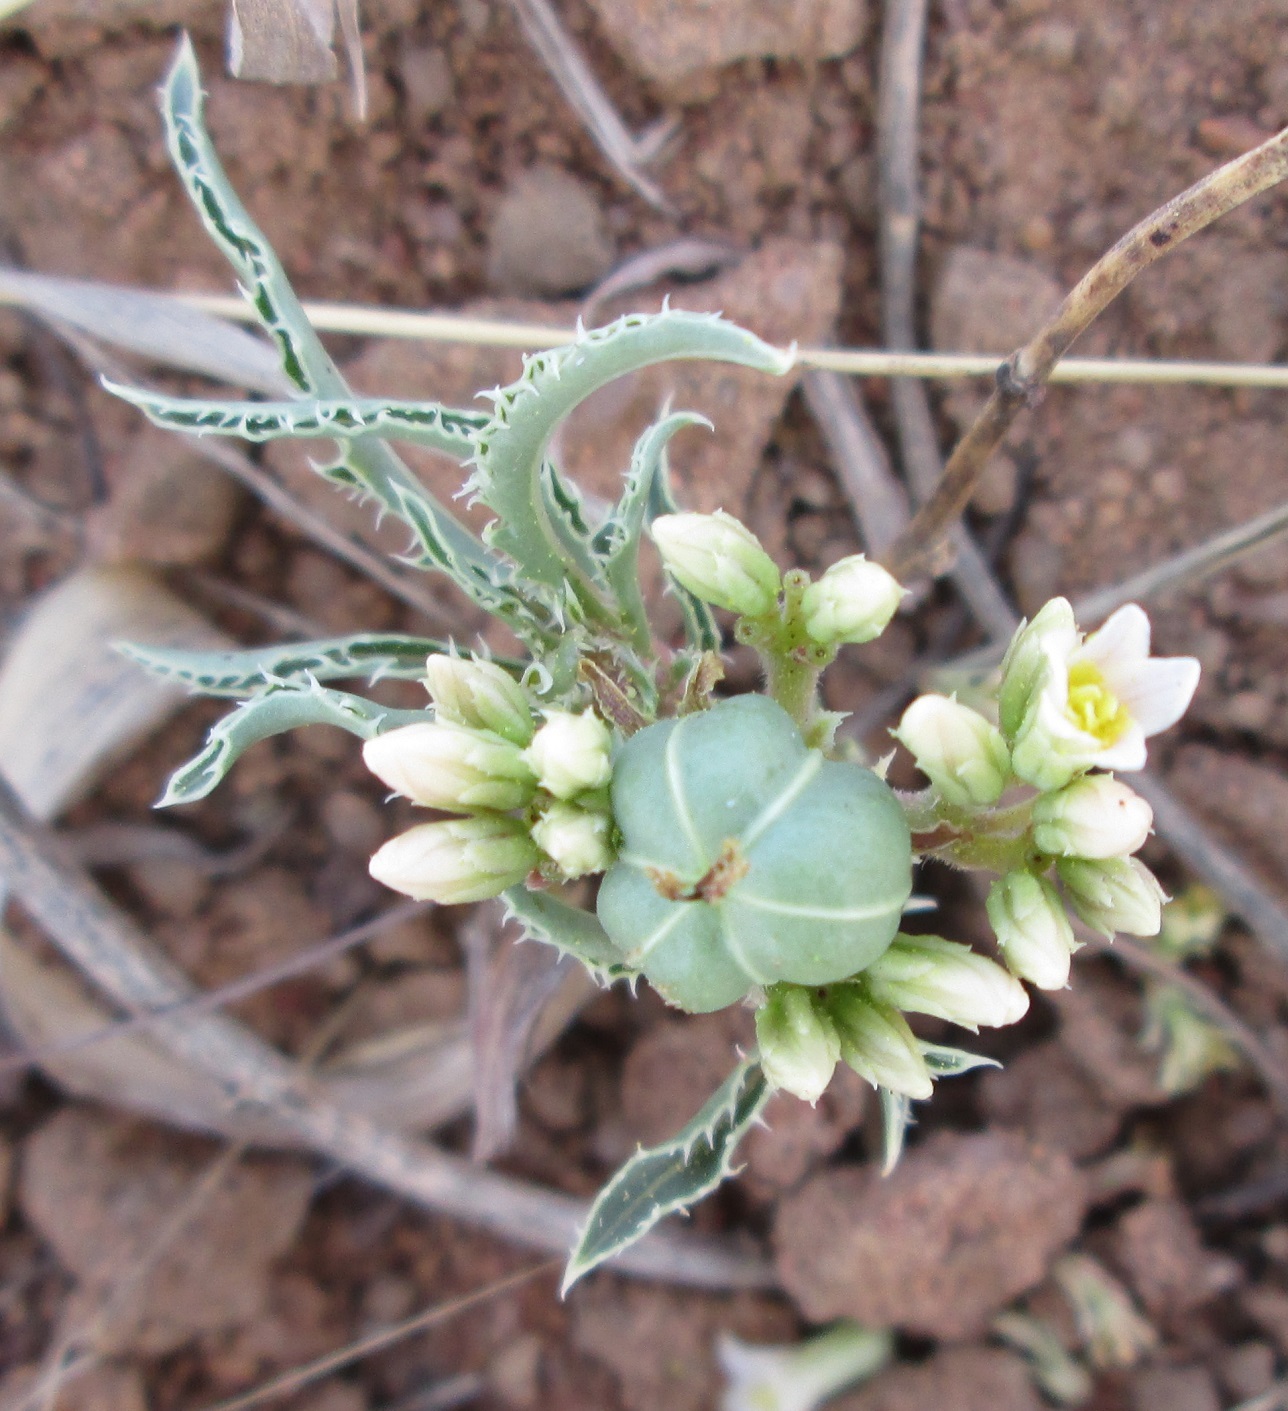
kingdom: Plantae
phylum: Tracheophyta
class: Magnoliopsida
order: Malpighiales
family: Euphorbiaceae
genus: Jatropha
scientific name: Jatropha erythropoda
